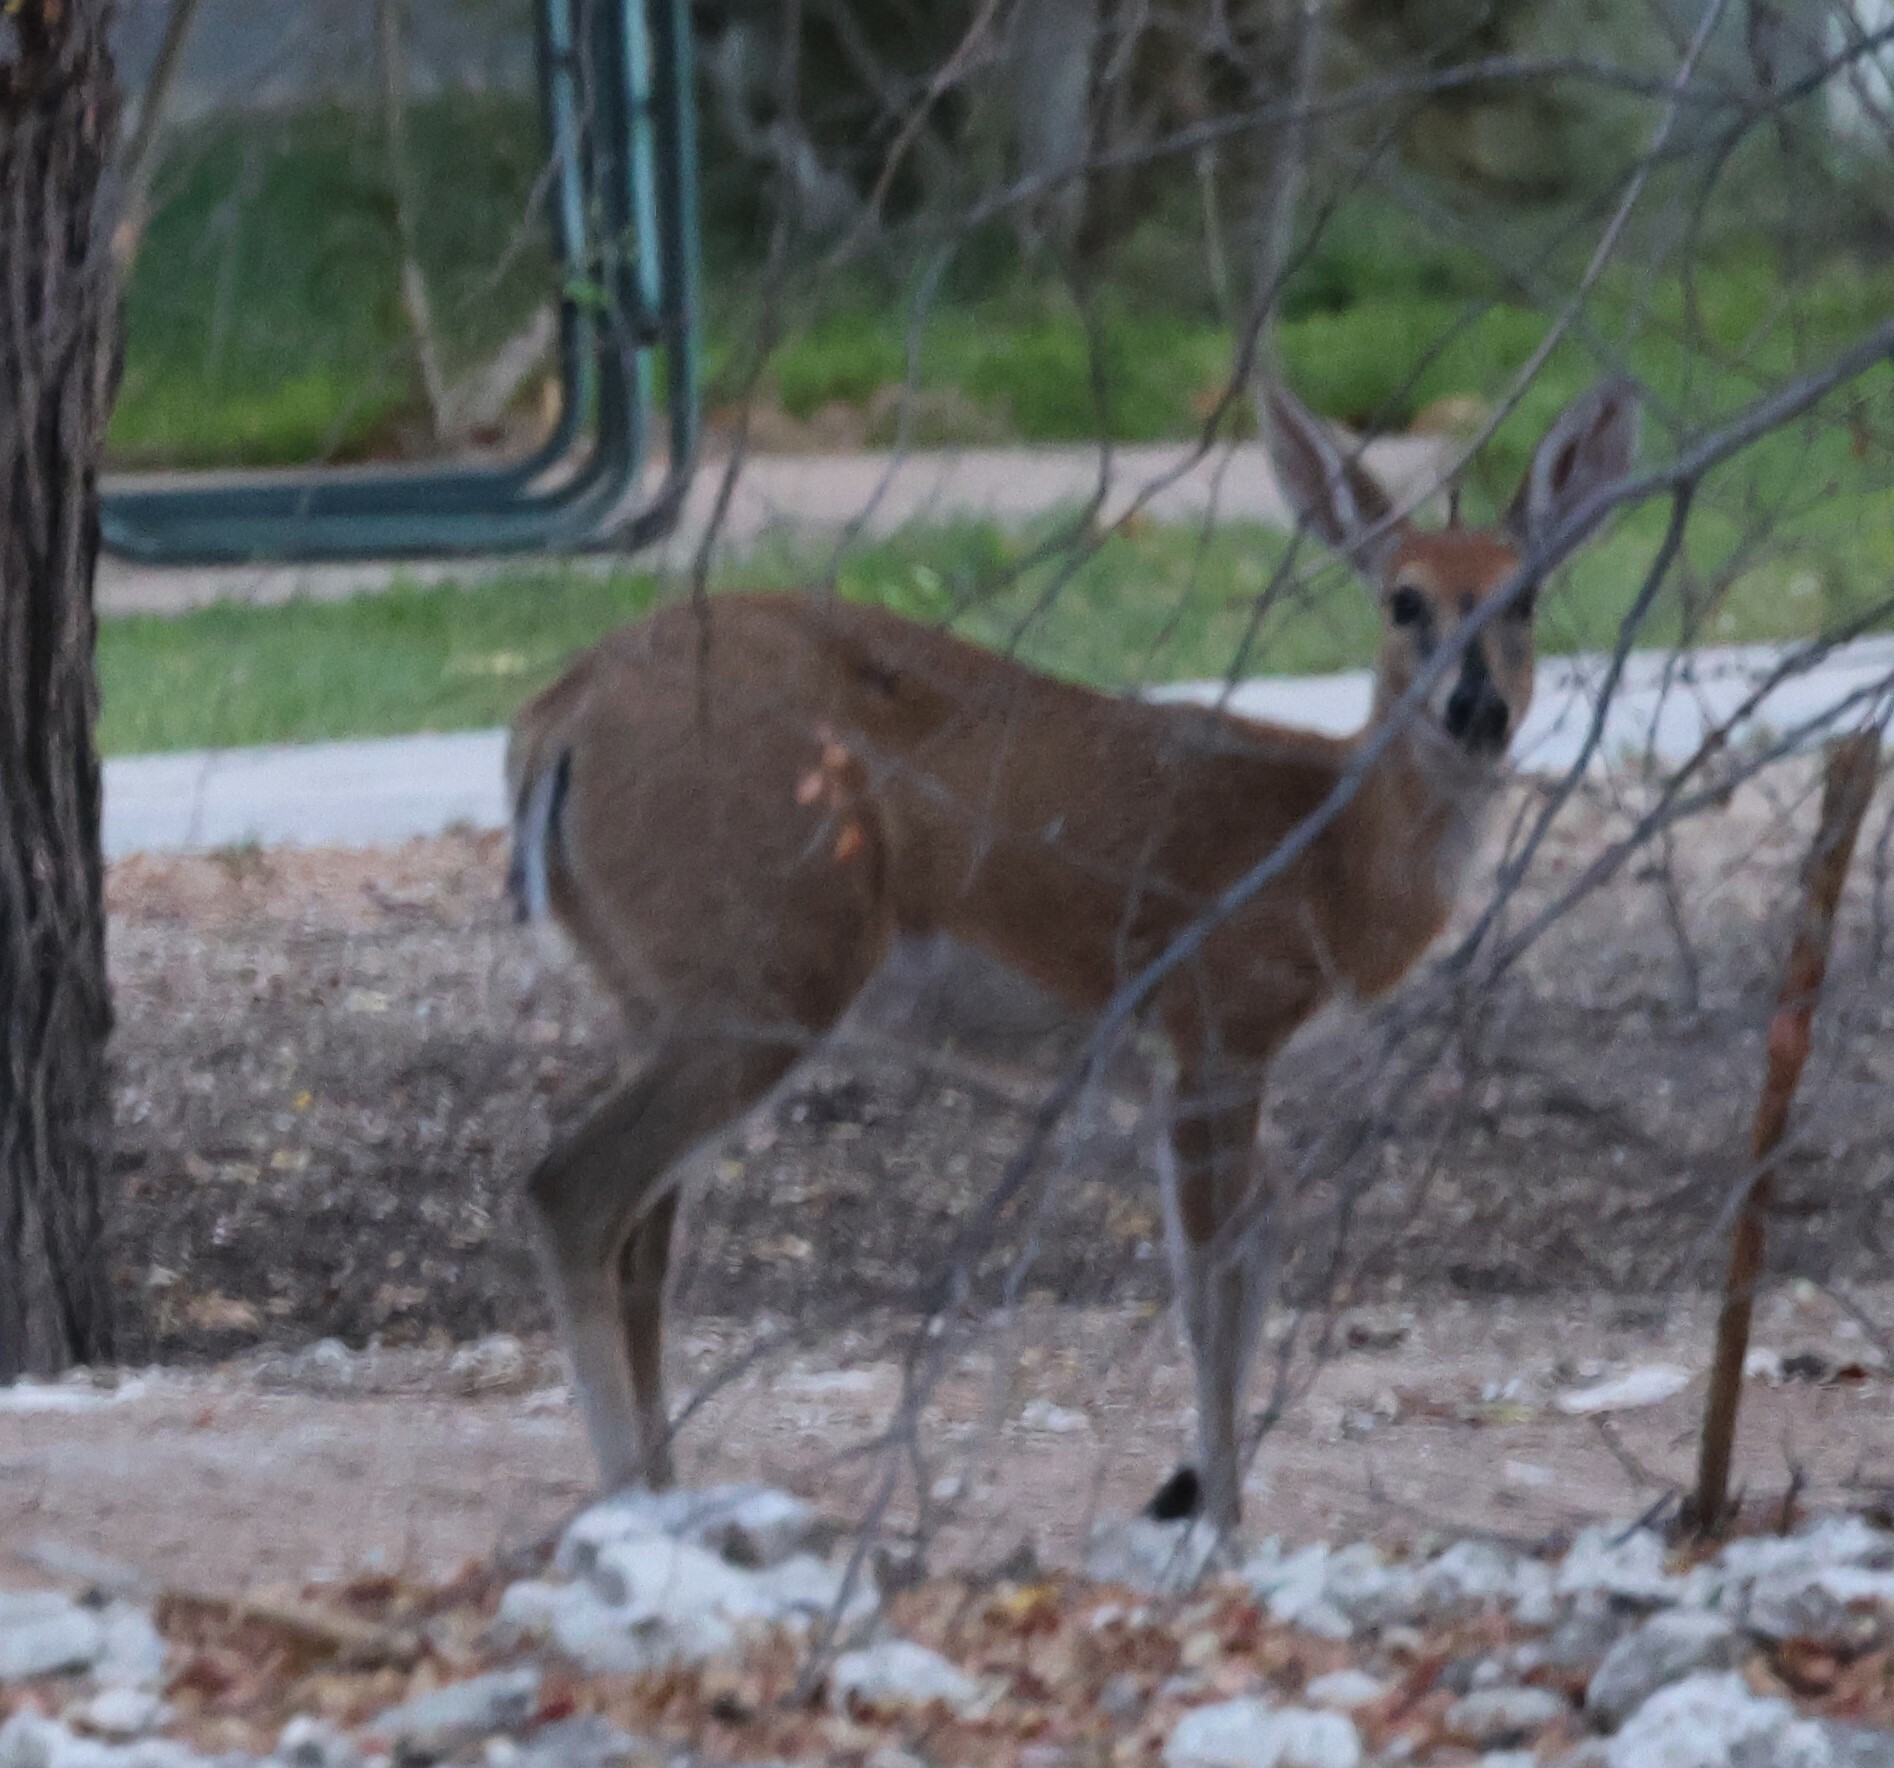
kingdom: Animalia
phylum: Chordata
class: Mammalia
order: Artiodactyla
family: Bovidae
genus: Sylvicapra
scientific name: Sylvicapra grimmia
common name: Bush duiker
